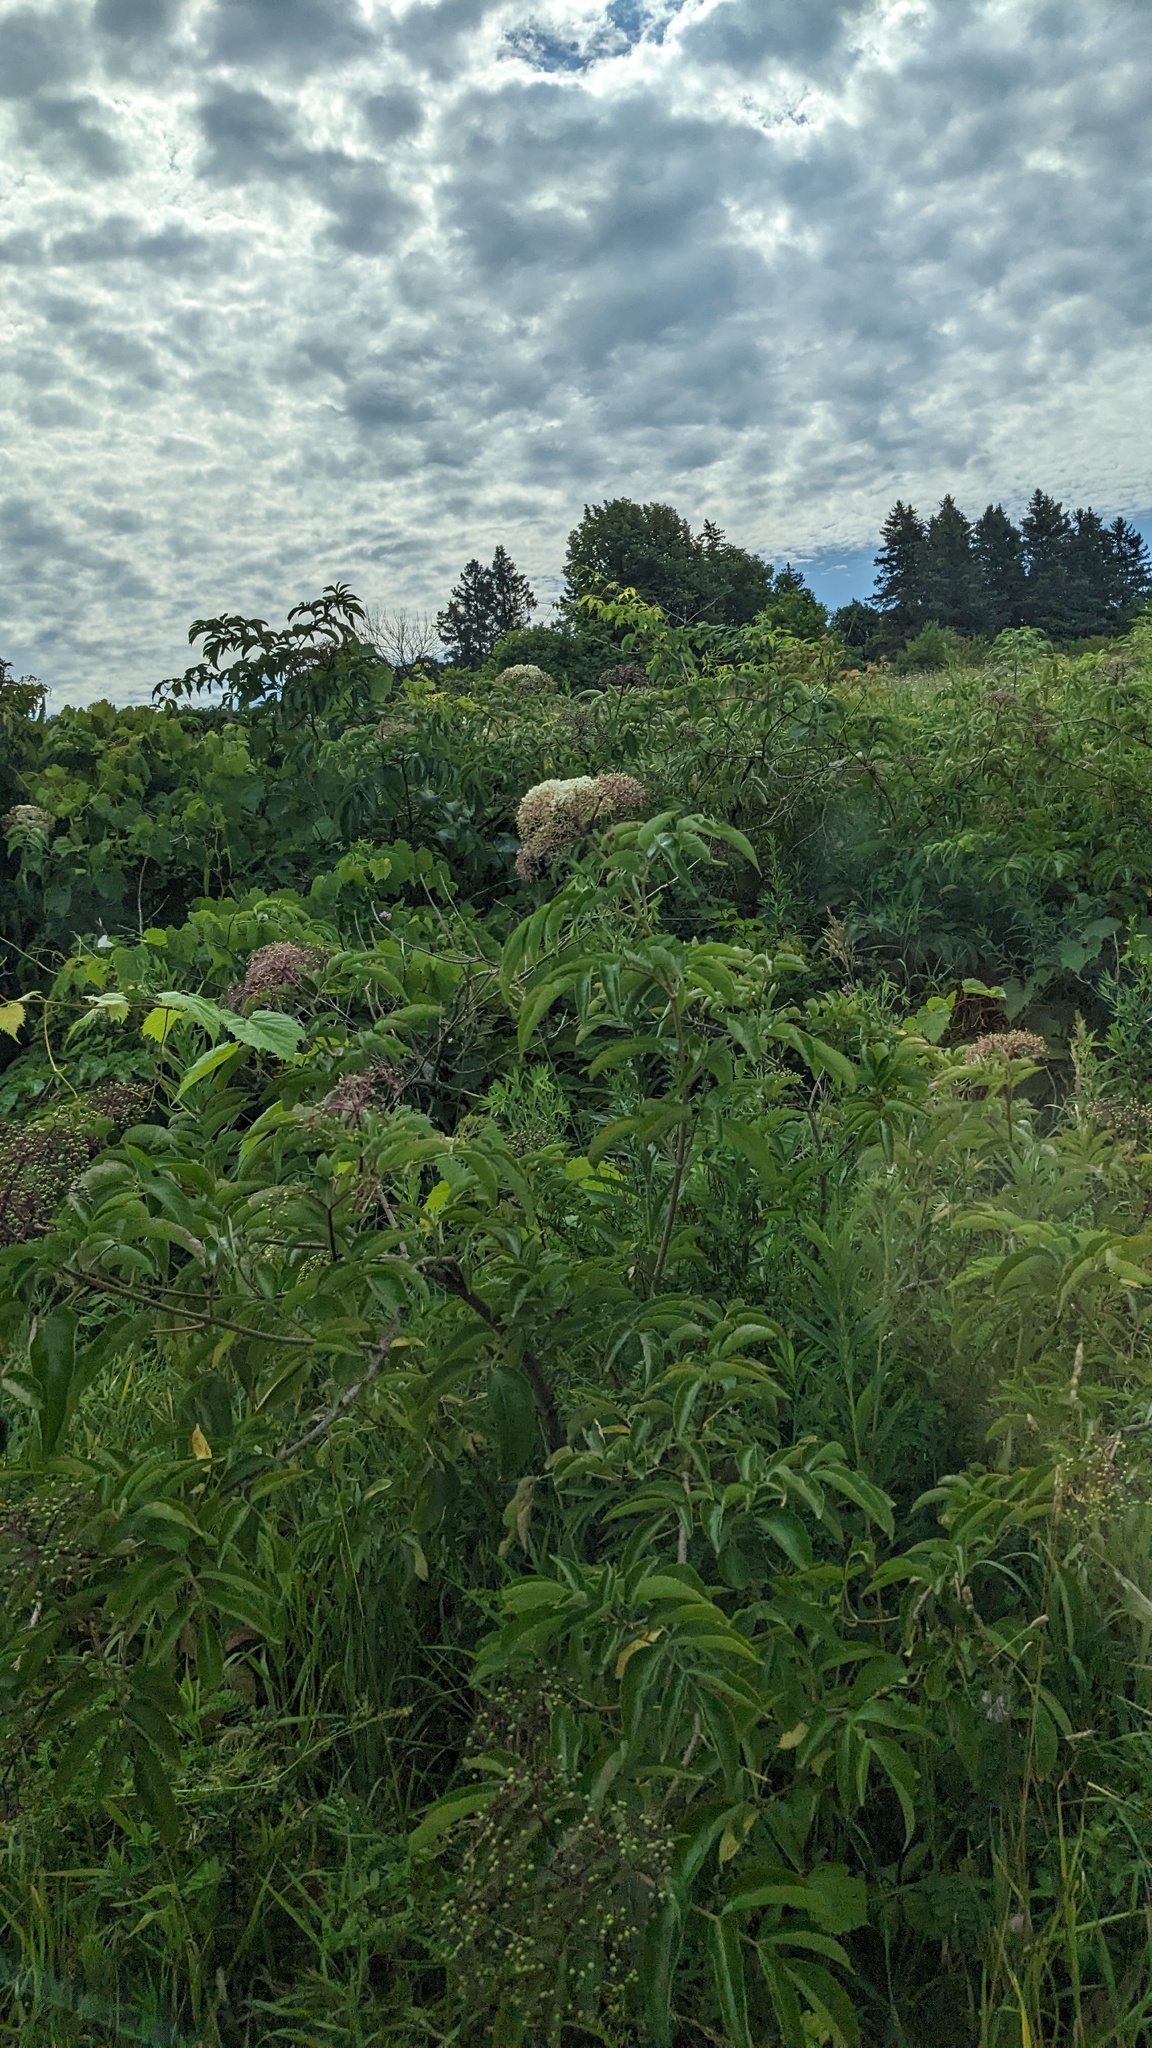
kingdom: Plantae
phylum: Tracheophyta
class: Magnoliopsida
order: Dipsacales
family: Viburnaceae
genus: Sambucus
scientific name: Sambucus canadensis
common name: American elder
